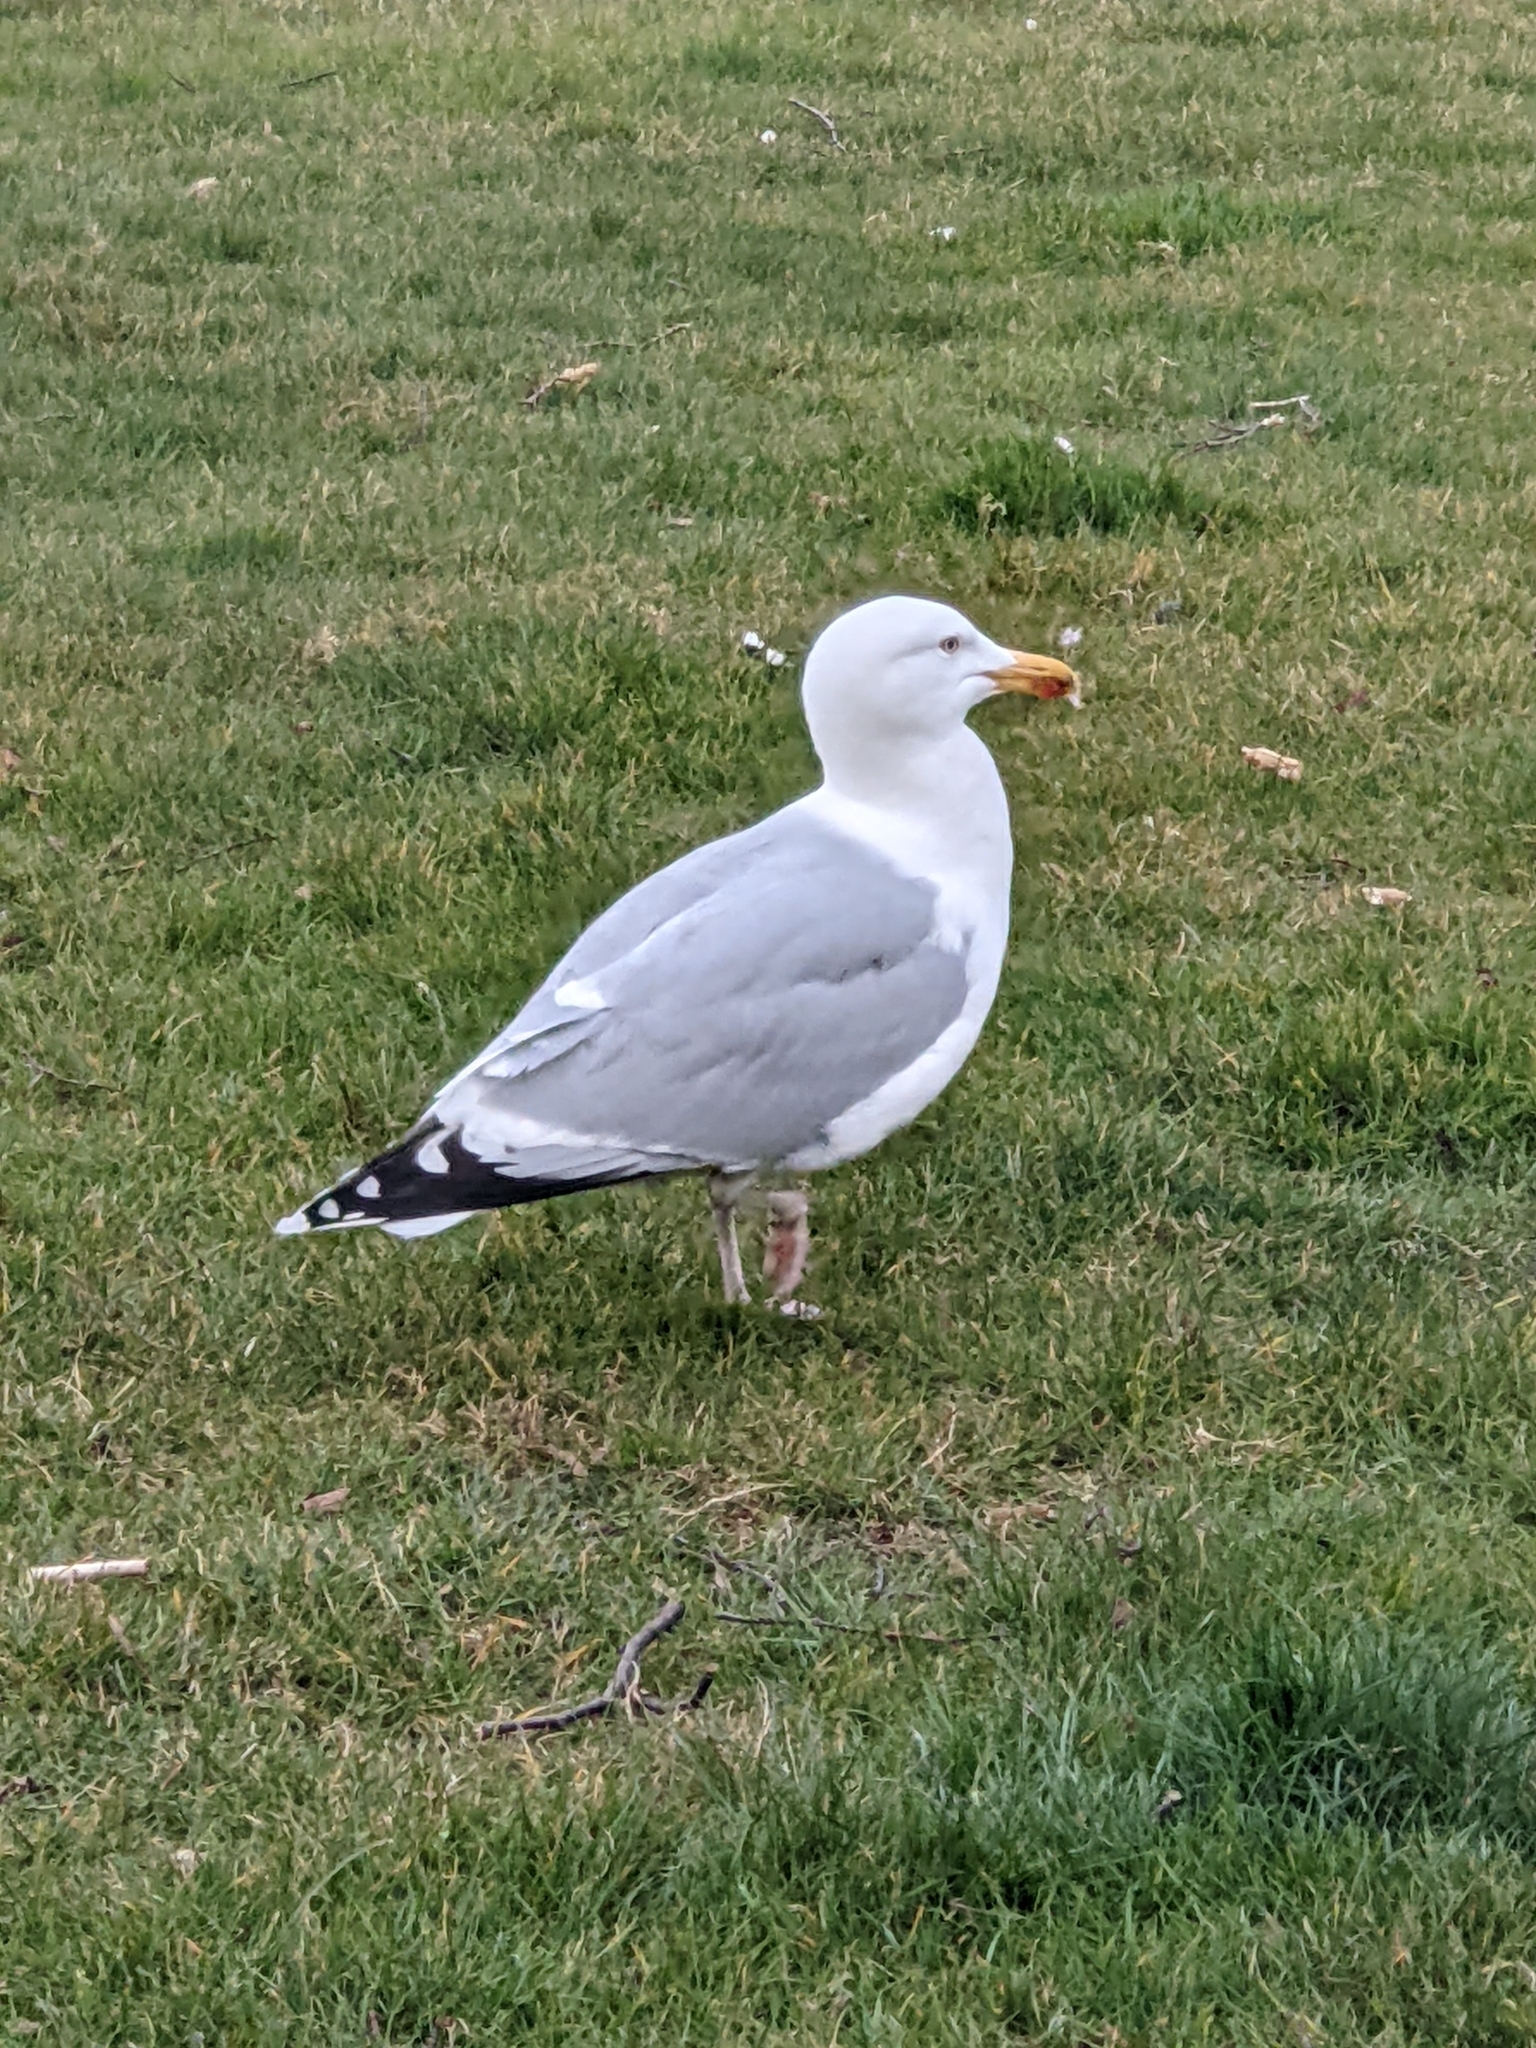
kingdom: Animalia
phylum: Chordata
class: Aves
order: Charadriiformes
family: Laridae
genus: Larus
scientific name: Larus argentatus
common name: Herring gull
